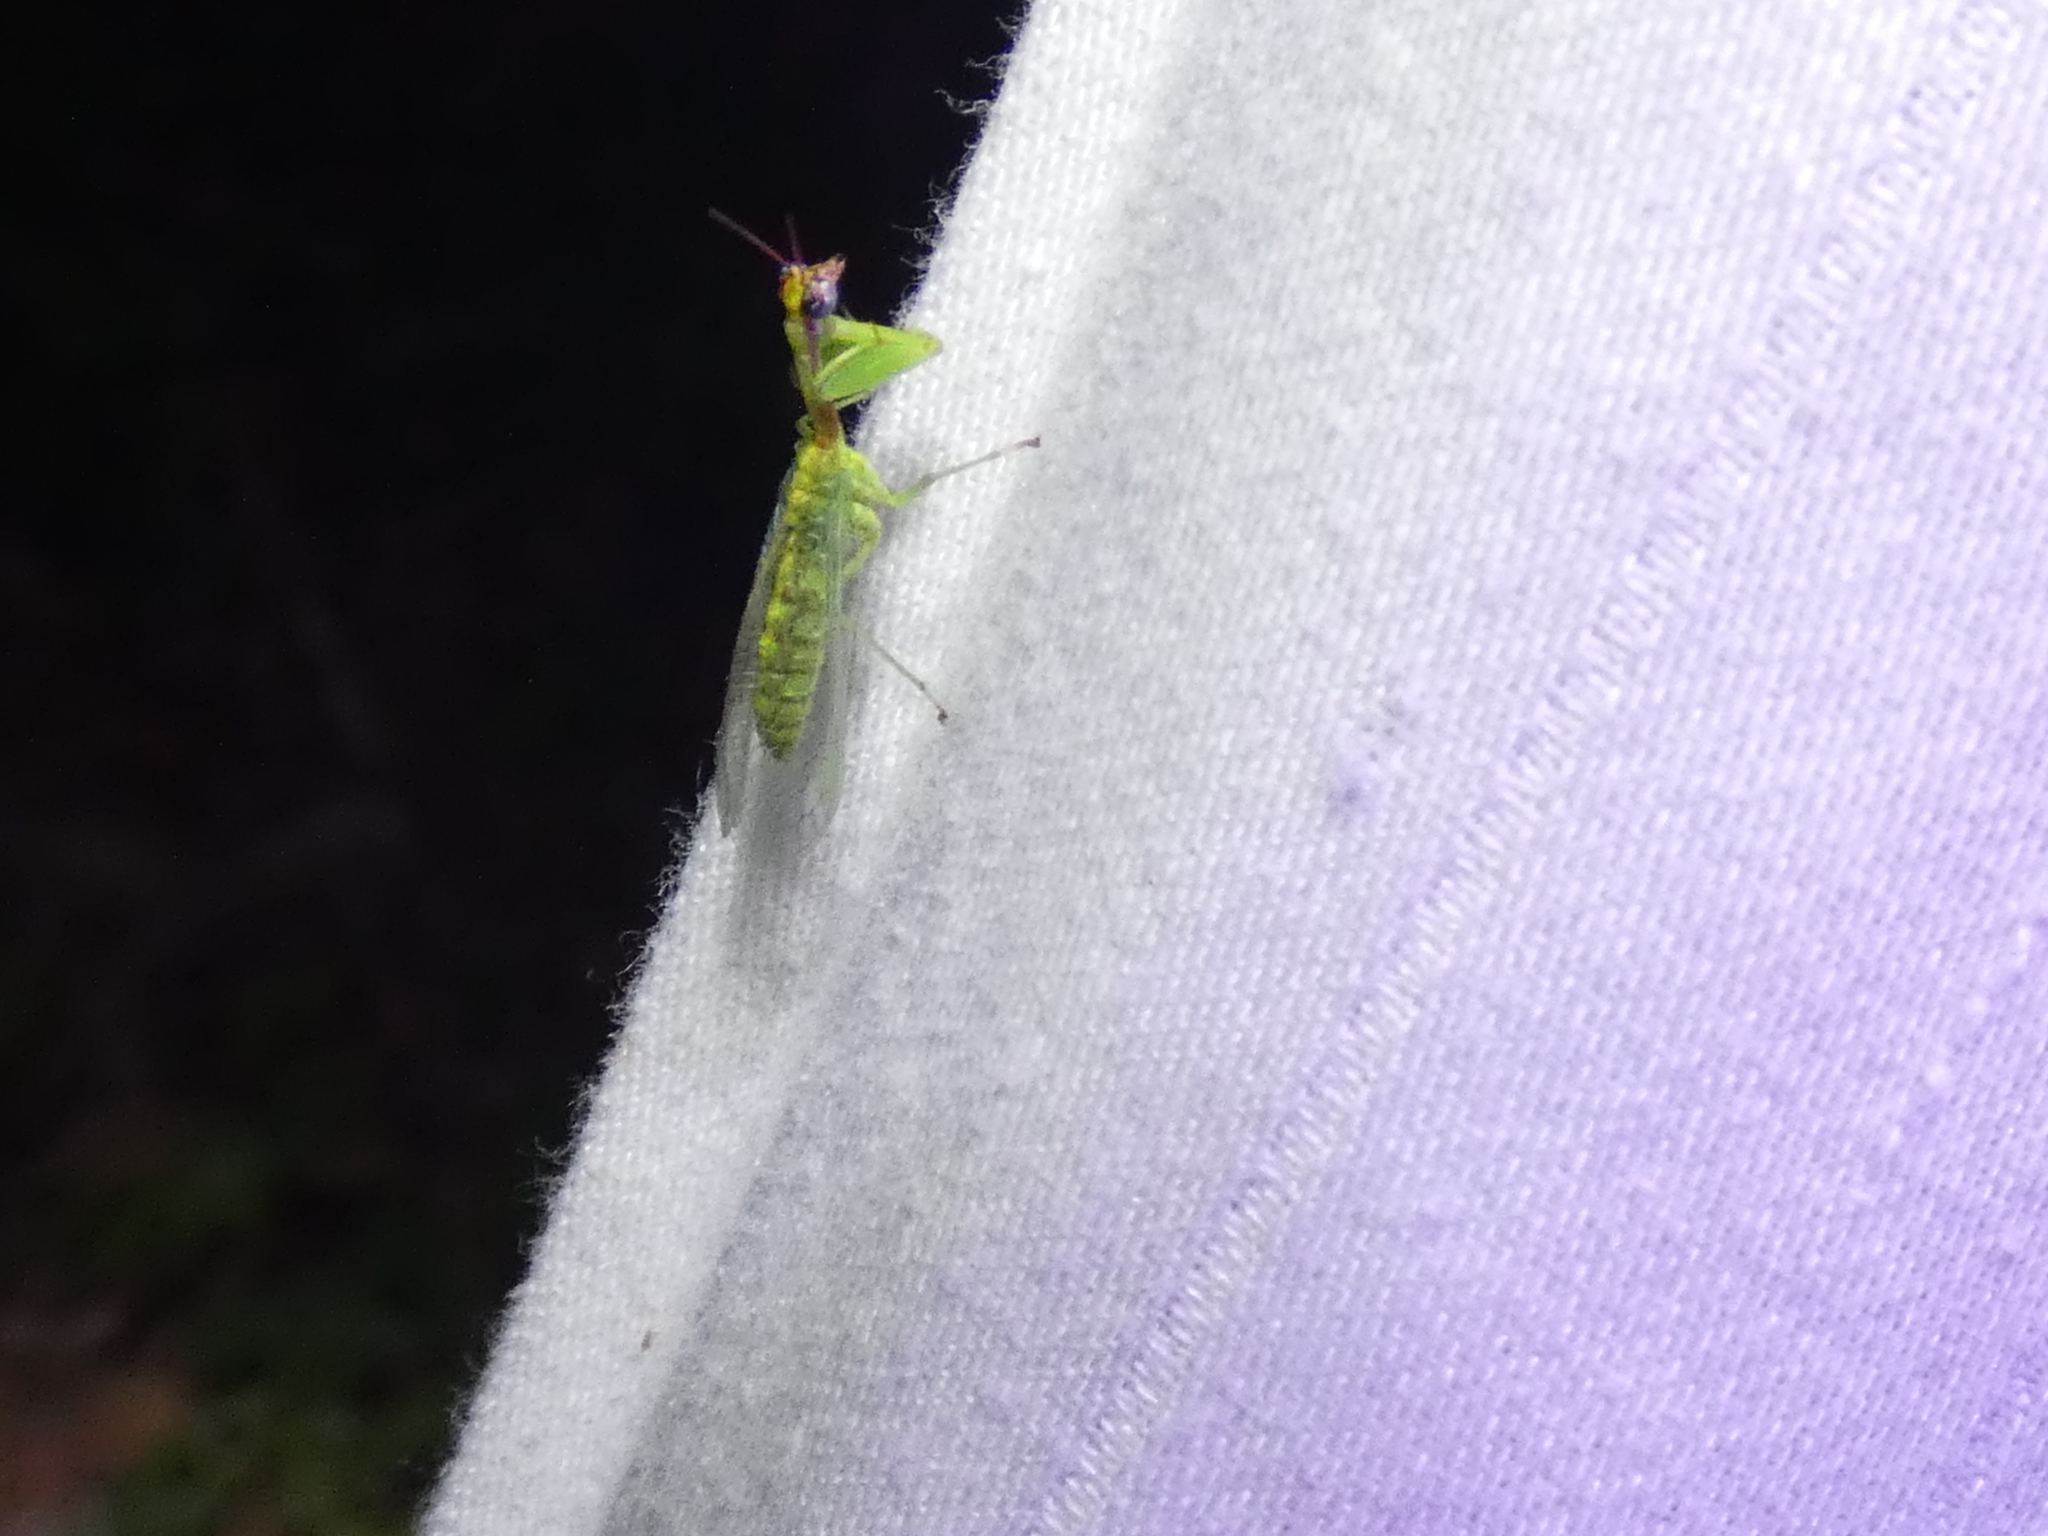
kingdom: Animalia
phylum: Arthropoda
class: Insecta
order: Neuroptera
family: Mantispidae
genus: Zeugomantispa
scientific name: Zeugomantispa minuta
